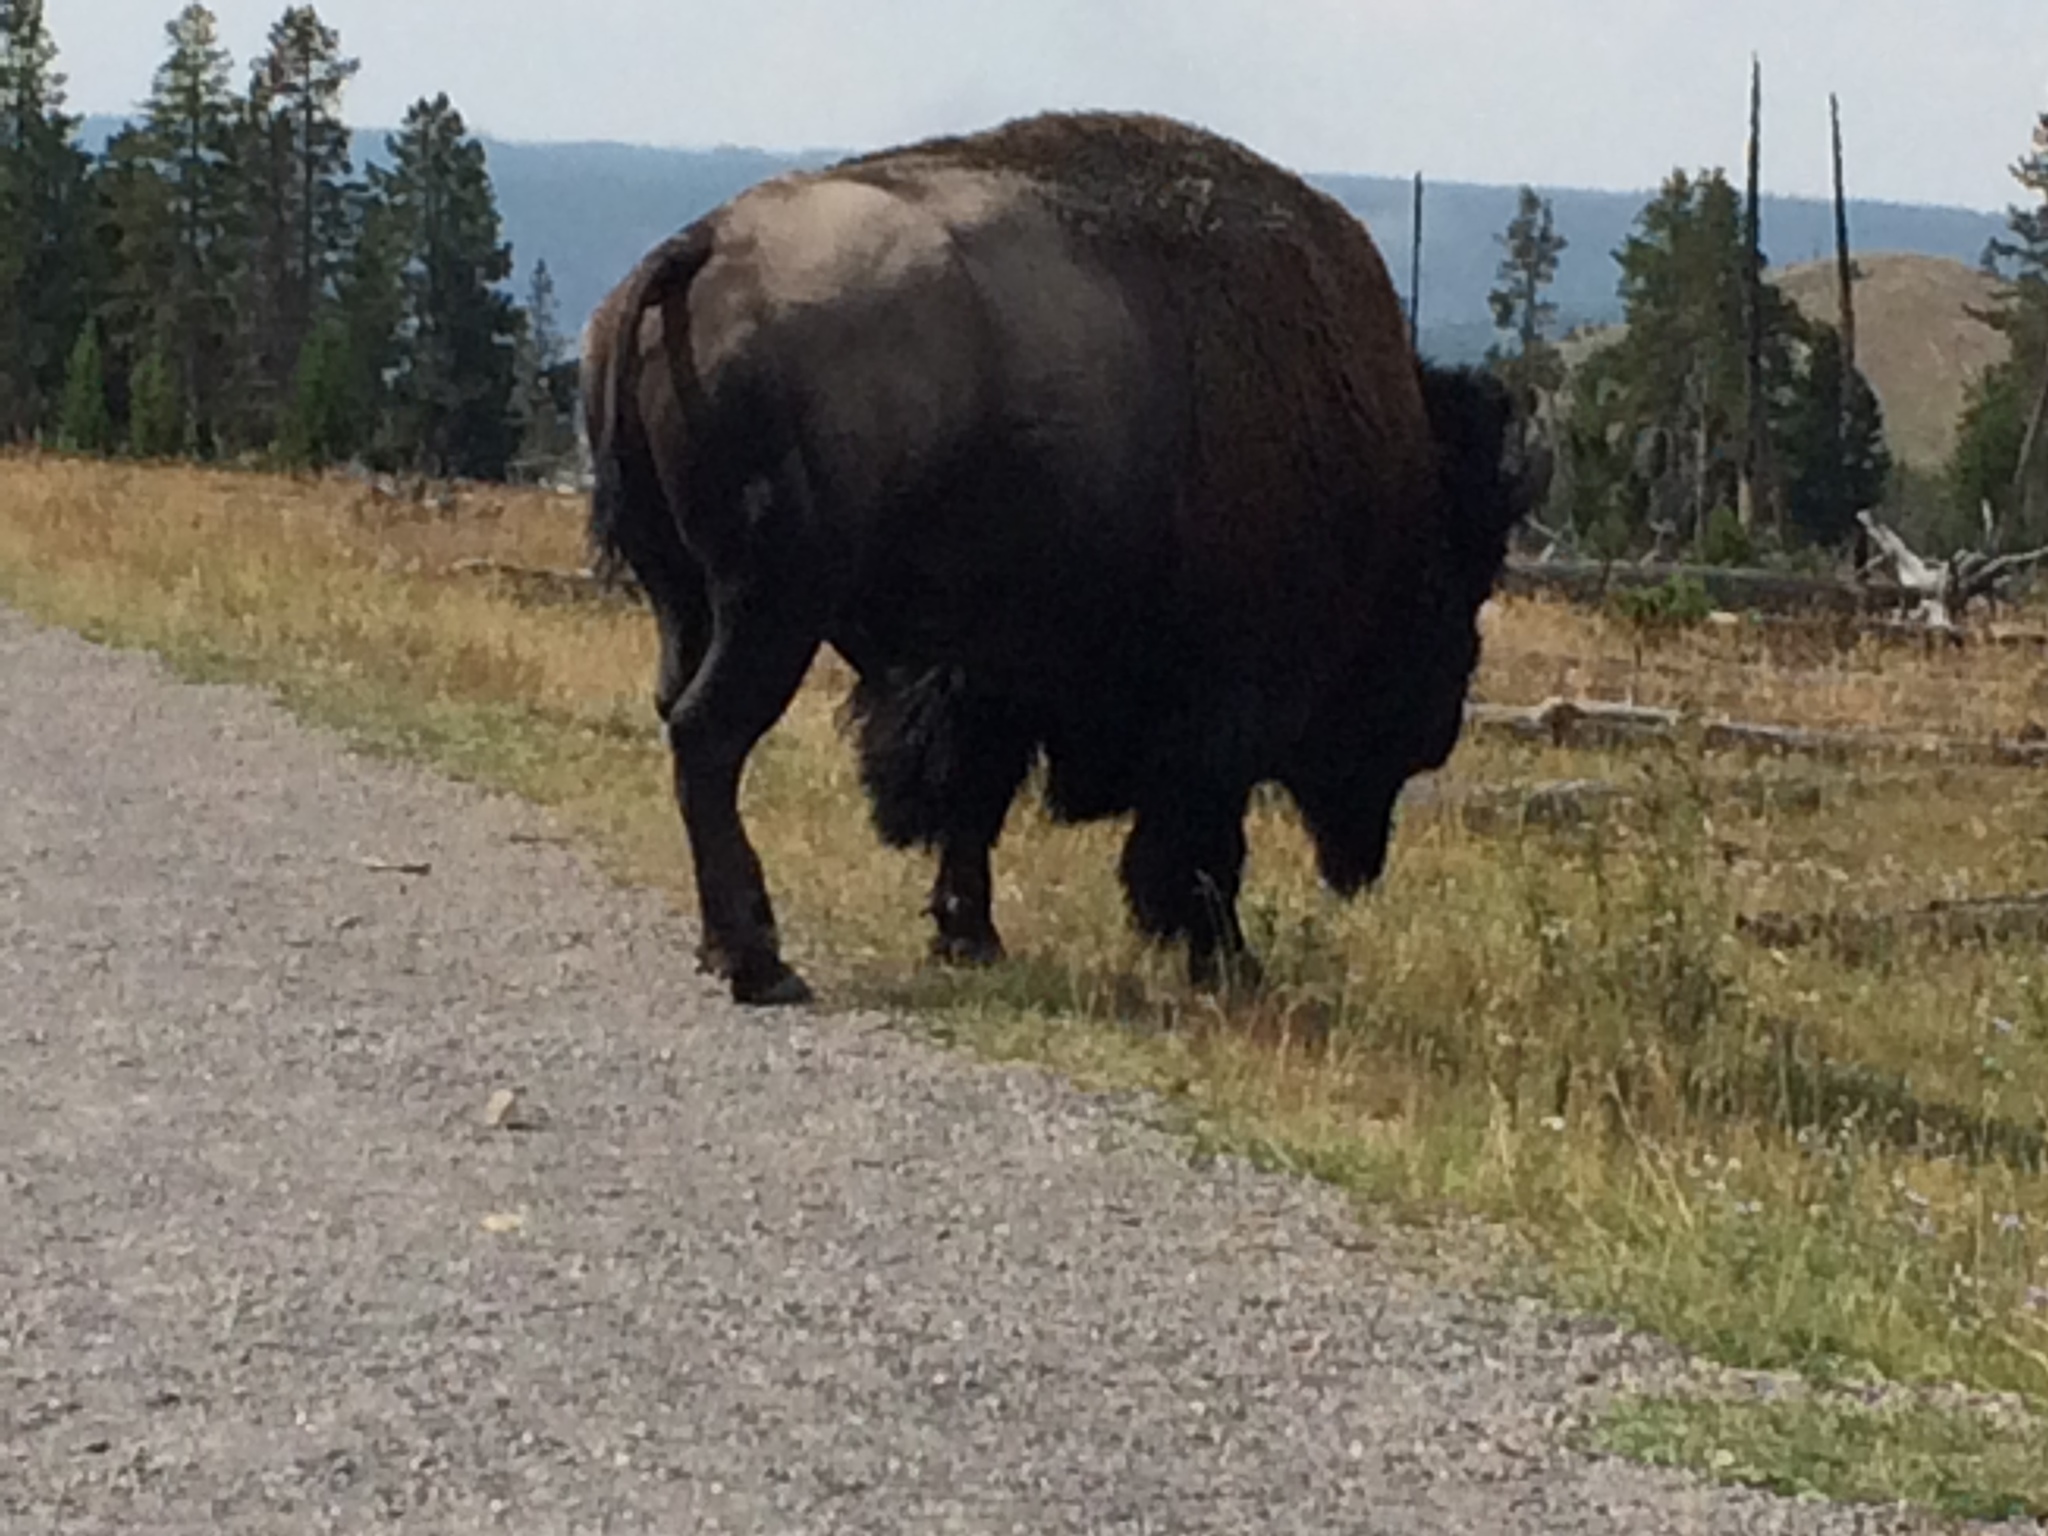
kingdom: Animalia
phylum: Chordata
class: Mammalia
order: Artiodactyla
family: Bovidae
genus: Bison
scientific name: Bison bison
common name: American bison
